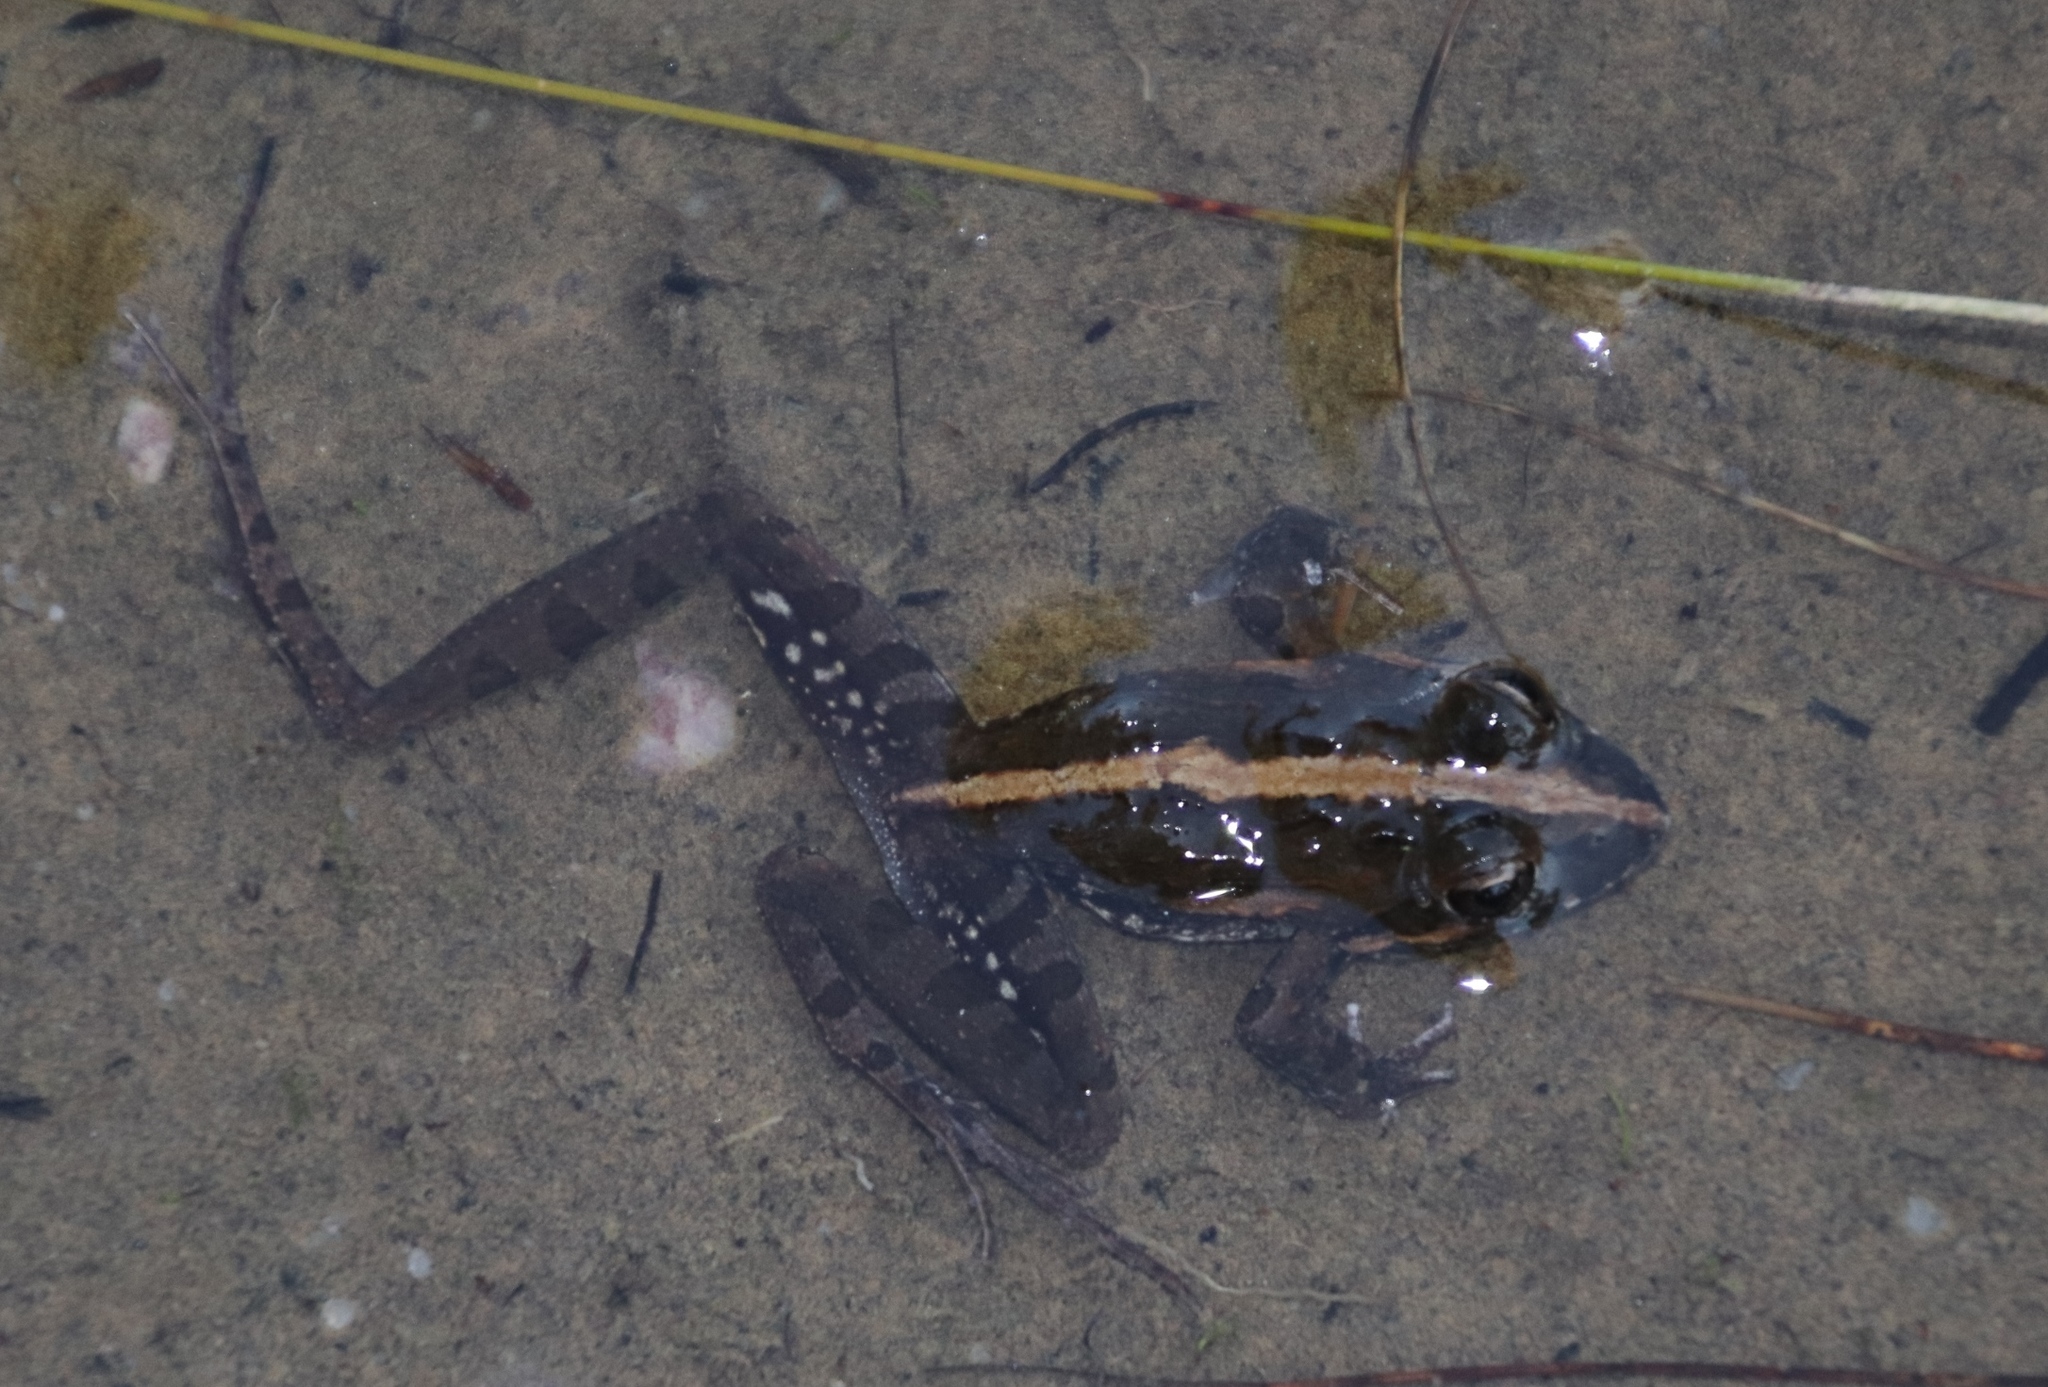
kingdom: Animalia
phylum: Chordata
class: Amphibia
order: Anura
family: Pyxicephalidae
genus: Strongylopus
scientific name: Strongylopus grayii
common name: Gray's stream frog
